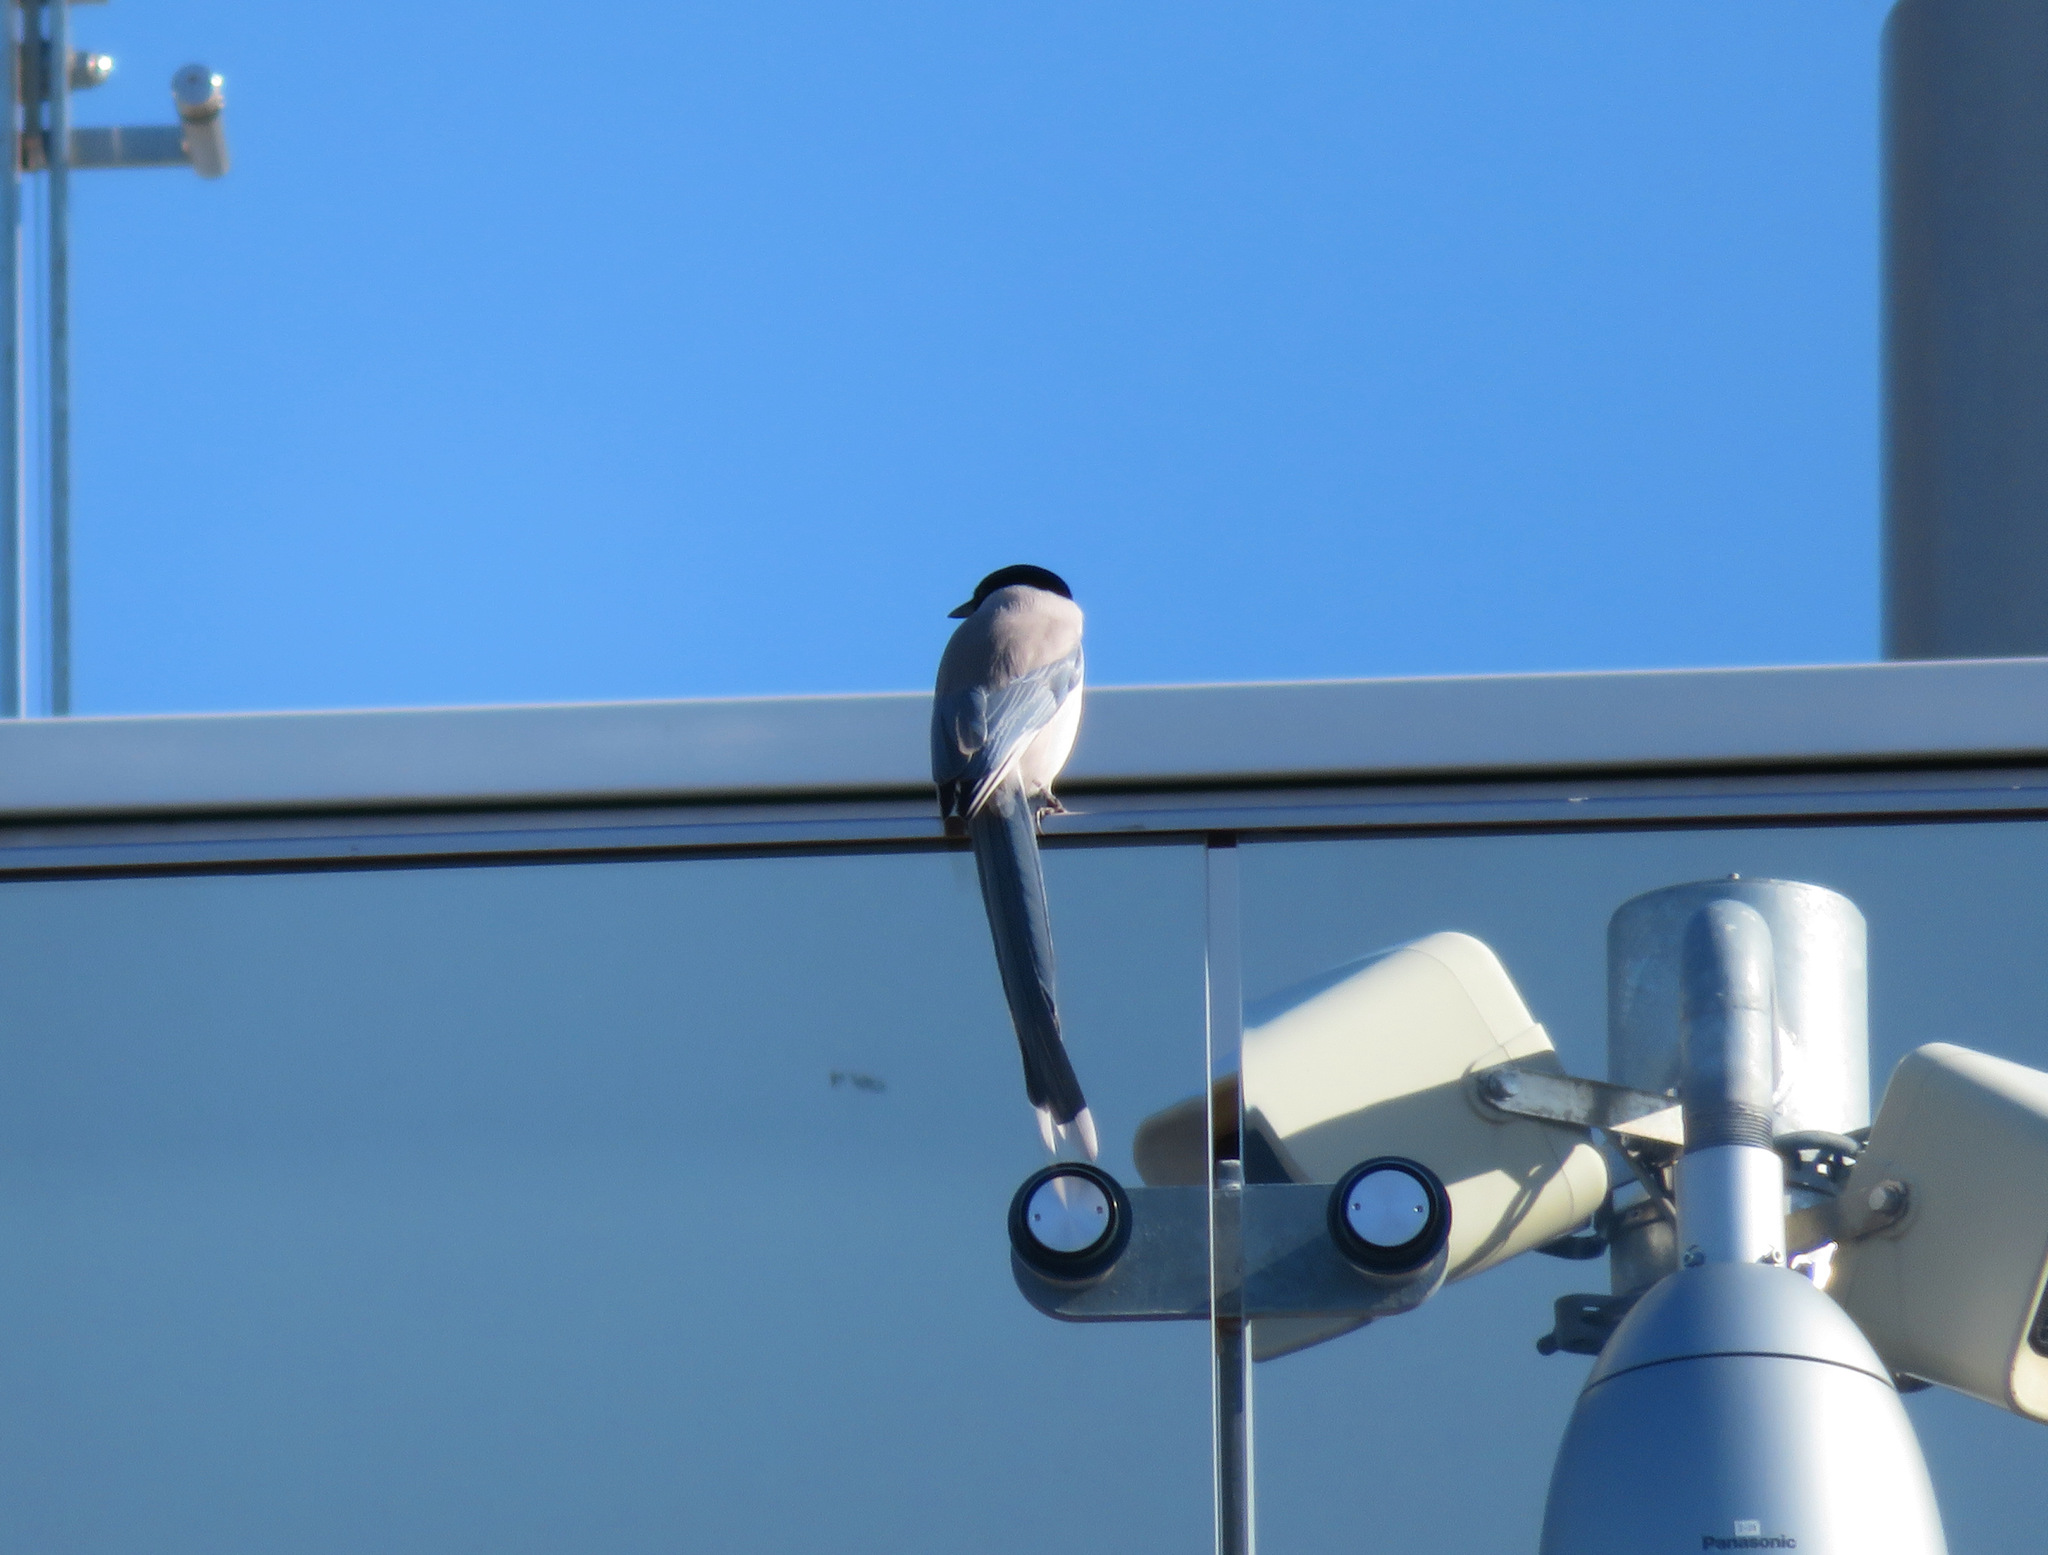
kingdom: Animalia
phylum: Chordata
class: Aves
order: Passeriformes
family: Corvidae
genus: Cyanopica
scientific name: Cyanopica cyanus
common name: Azure-winged magpie
